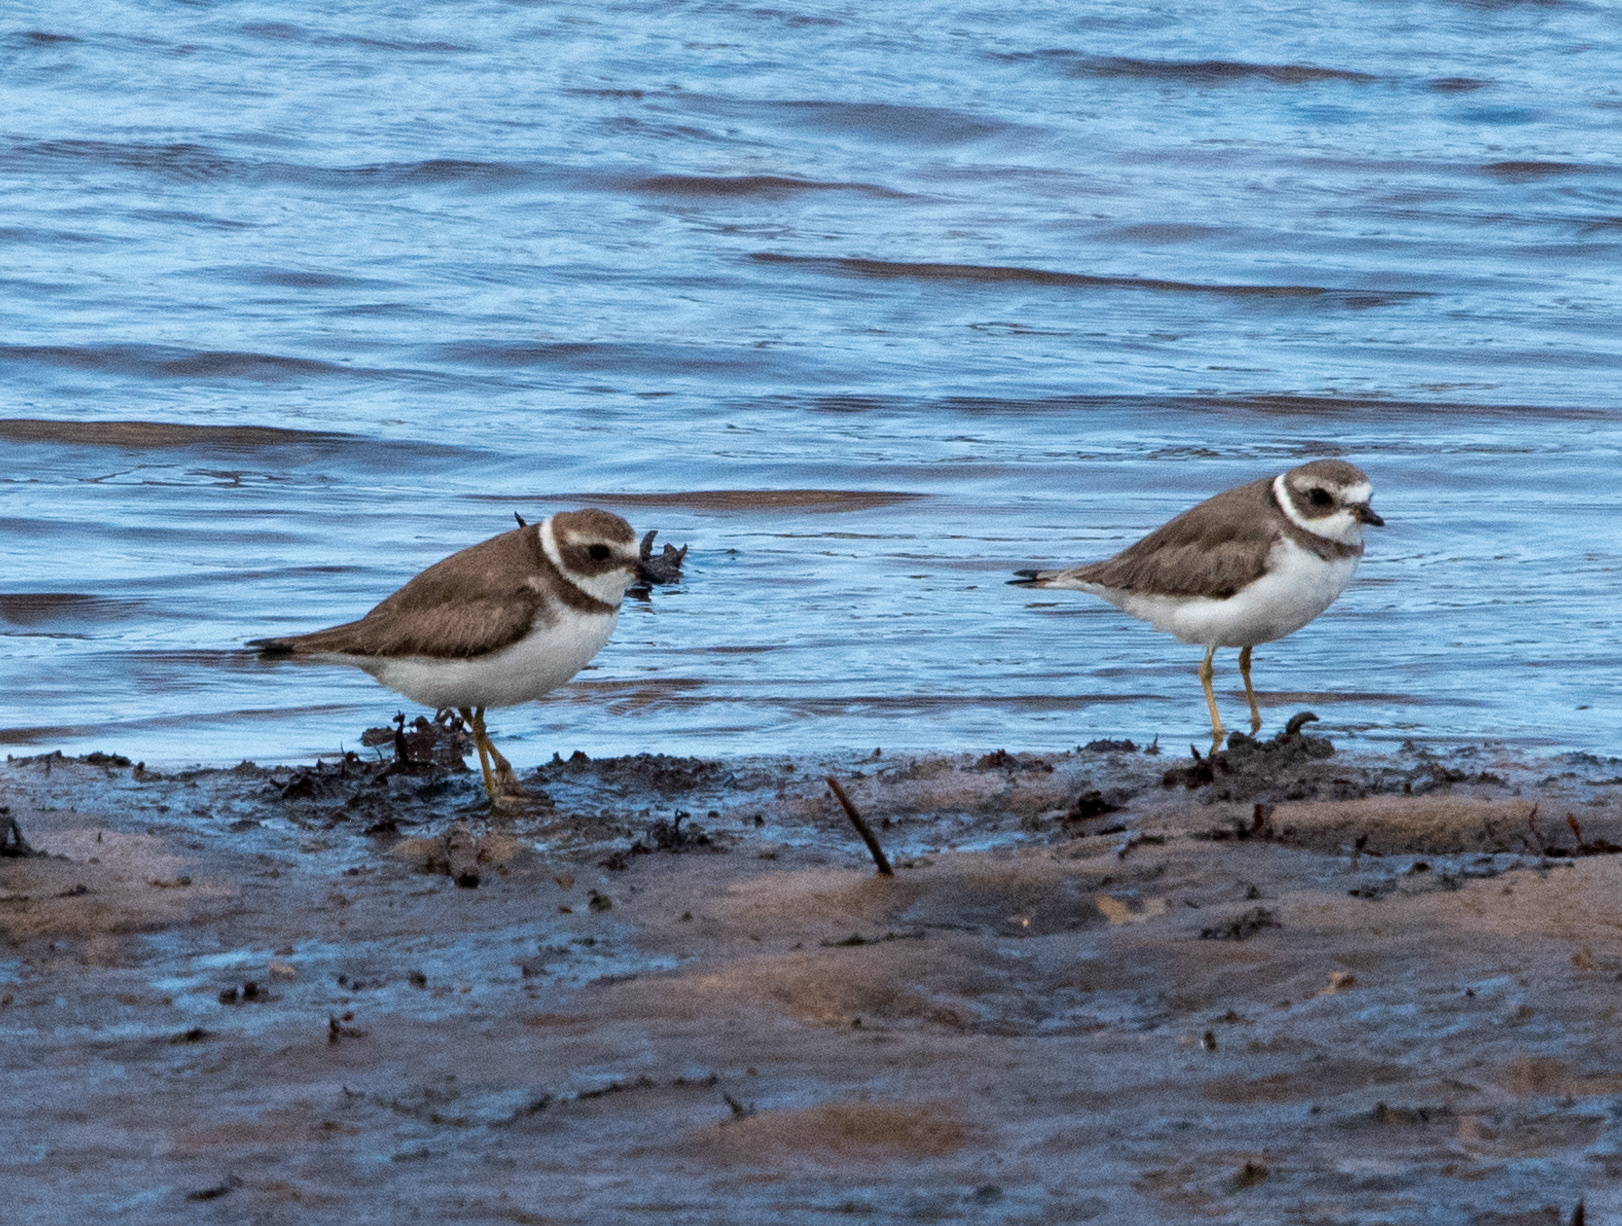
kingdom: Animalia
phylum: Chordata
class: Aves
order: Charadriiformes
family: Charadriidae
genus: Charadrius
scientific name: Charadrius semipalmatus
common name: Semipalmated plover
